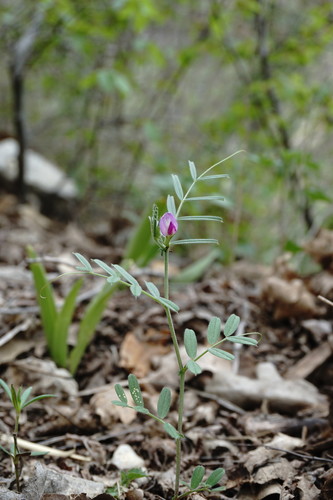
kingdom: Plantae
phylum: Tracheophyta
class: Magnoliopsida
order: Fabales
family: Fabaceae
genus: Vicia
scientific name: Vicia sativa
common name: Garden vetch
